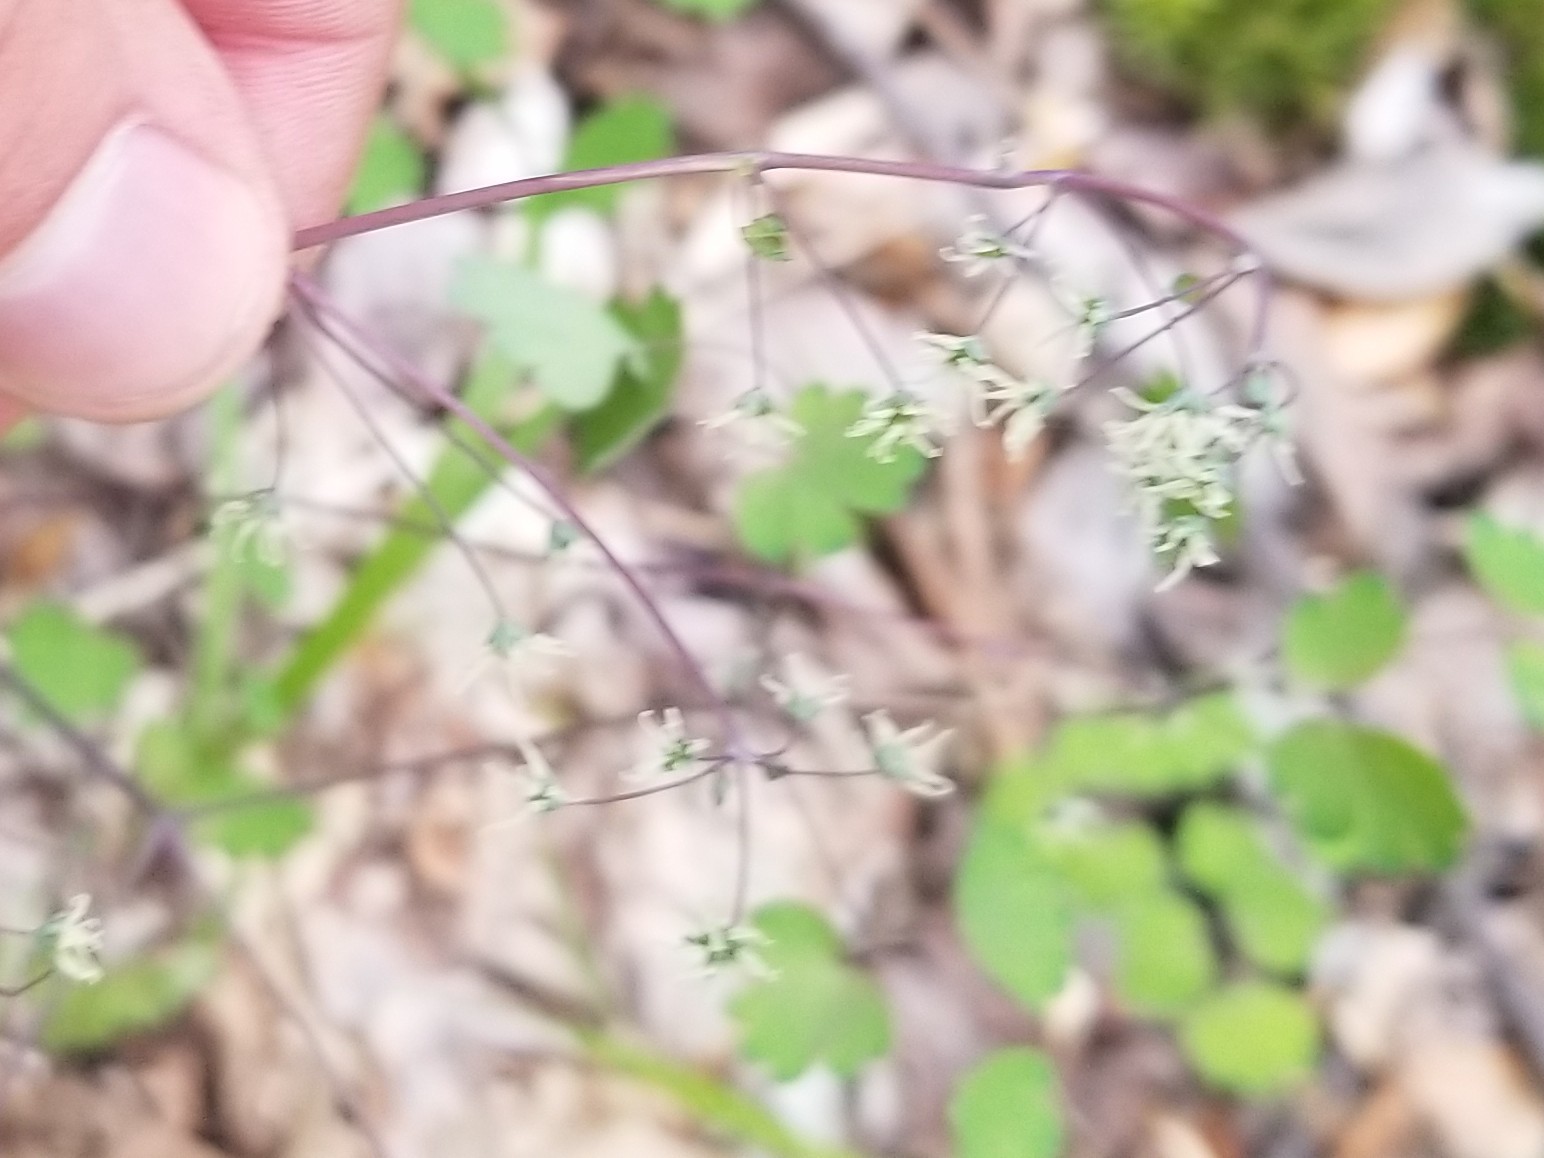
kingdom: Plantae
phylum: Tracheophyta
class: Magnoliopsida
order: Ranunculales
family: Ranunculaceae
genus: Thalictrum
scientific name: Thalictrum dioicum
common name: Early meadow-rue
